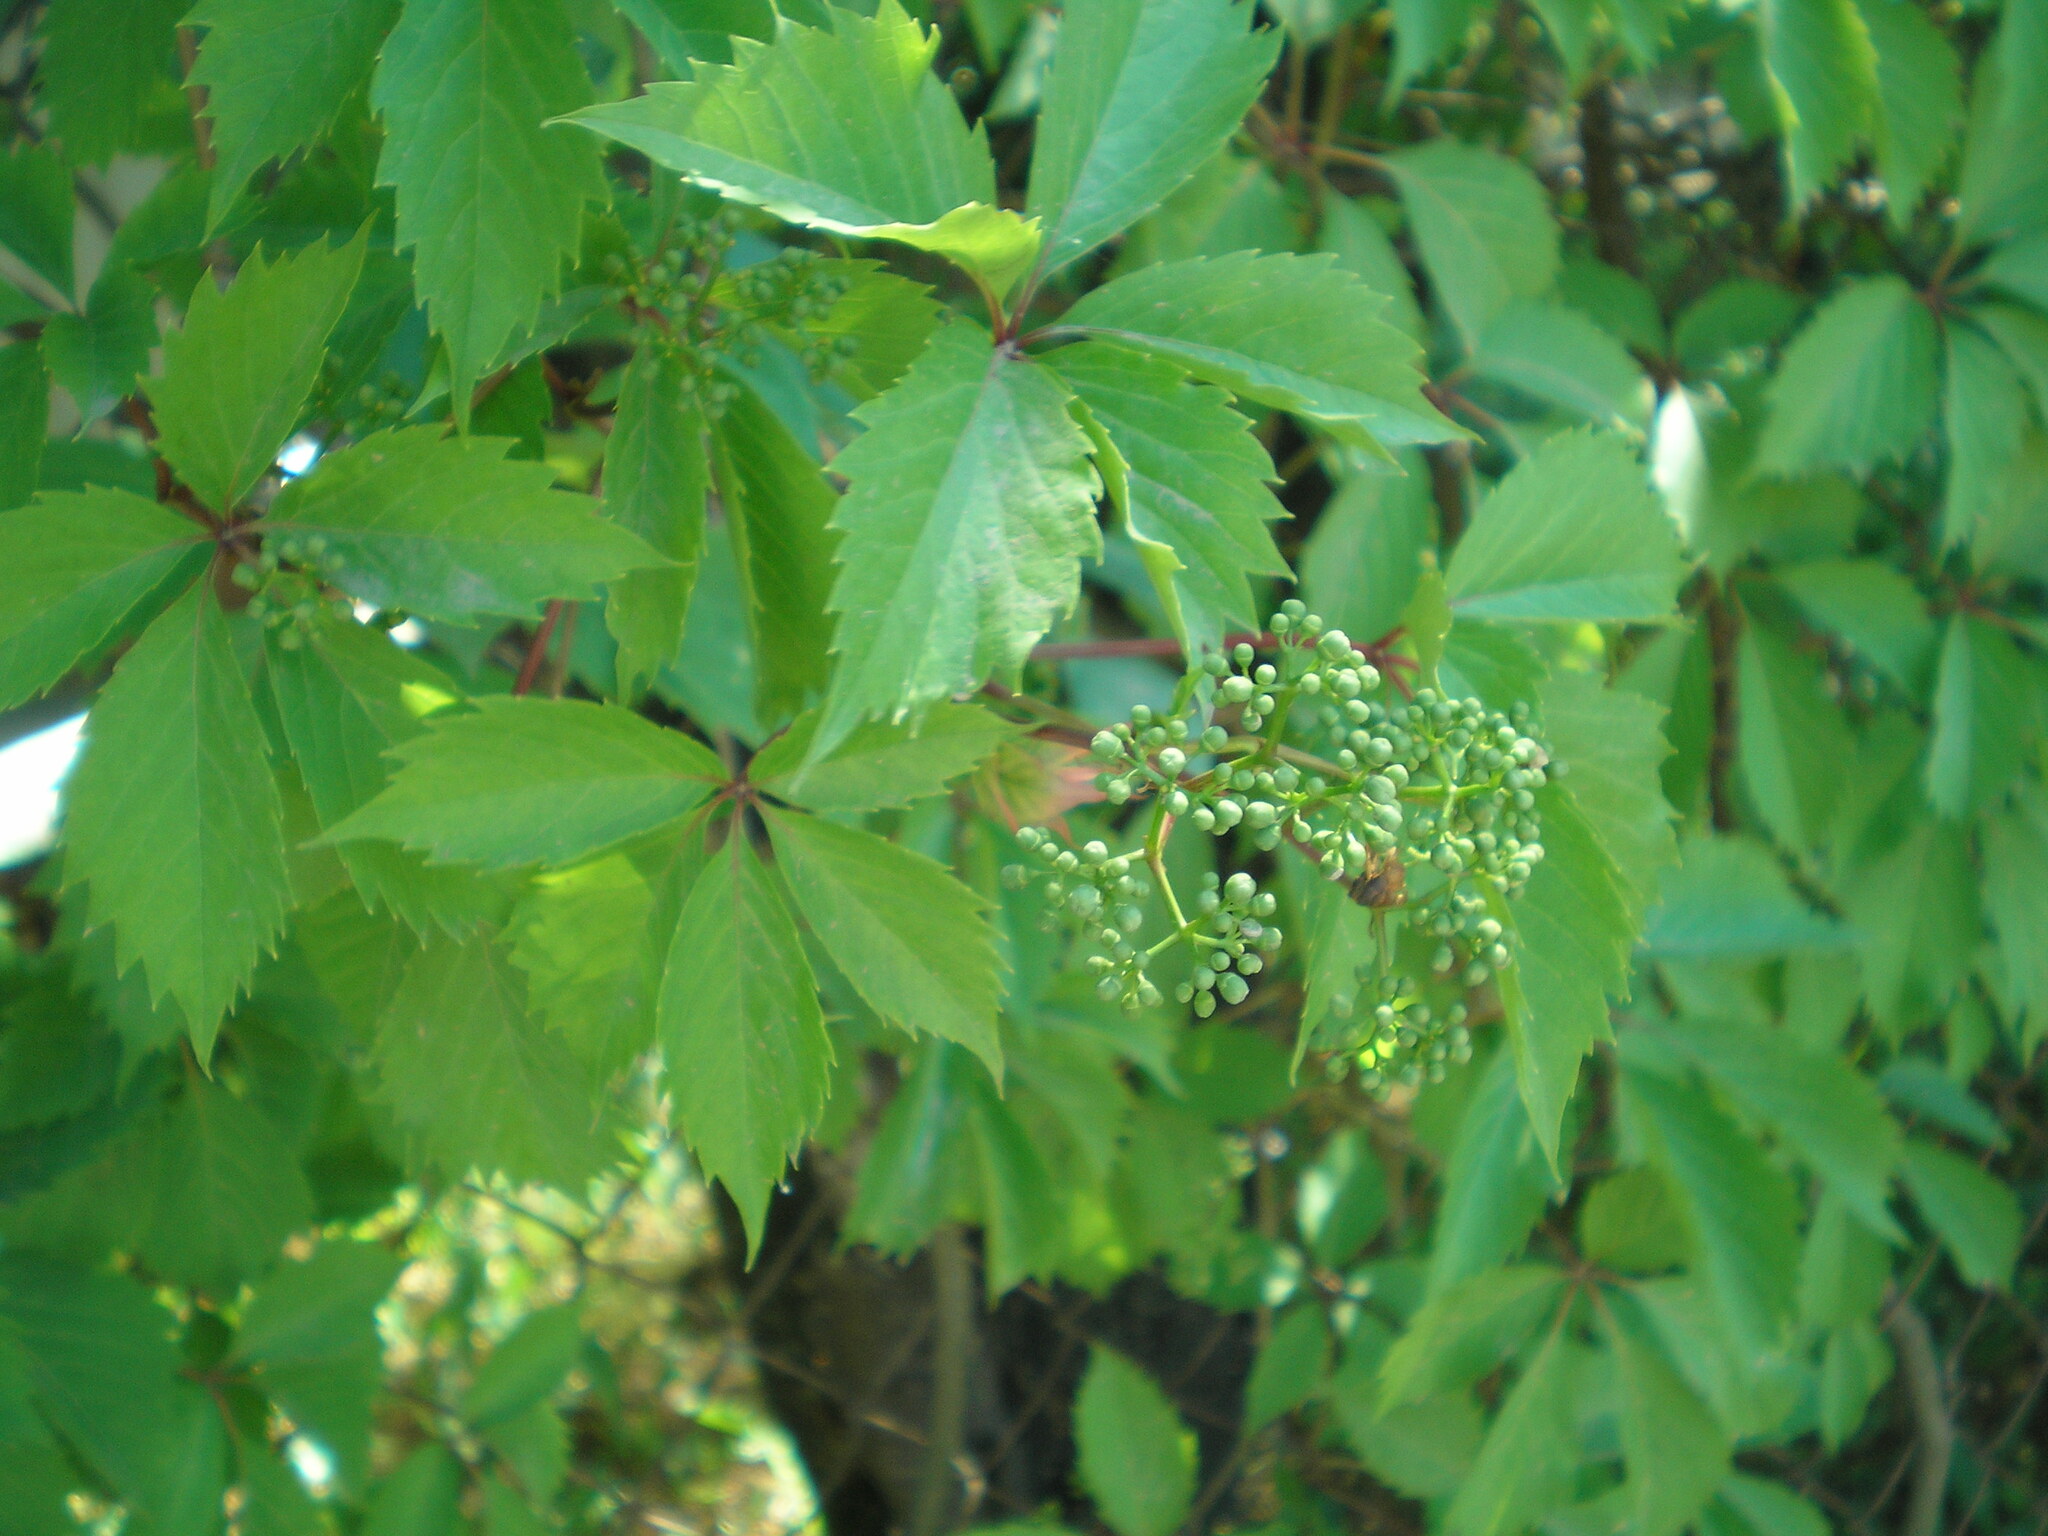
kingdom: Plantae
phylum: Tracheophyta
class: Magnoliopsida
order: Vitales
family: Vitaceae
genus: Parthenocissus
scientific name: Parthenocissus inserta
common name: False virginia-creeper
